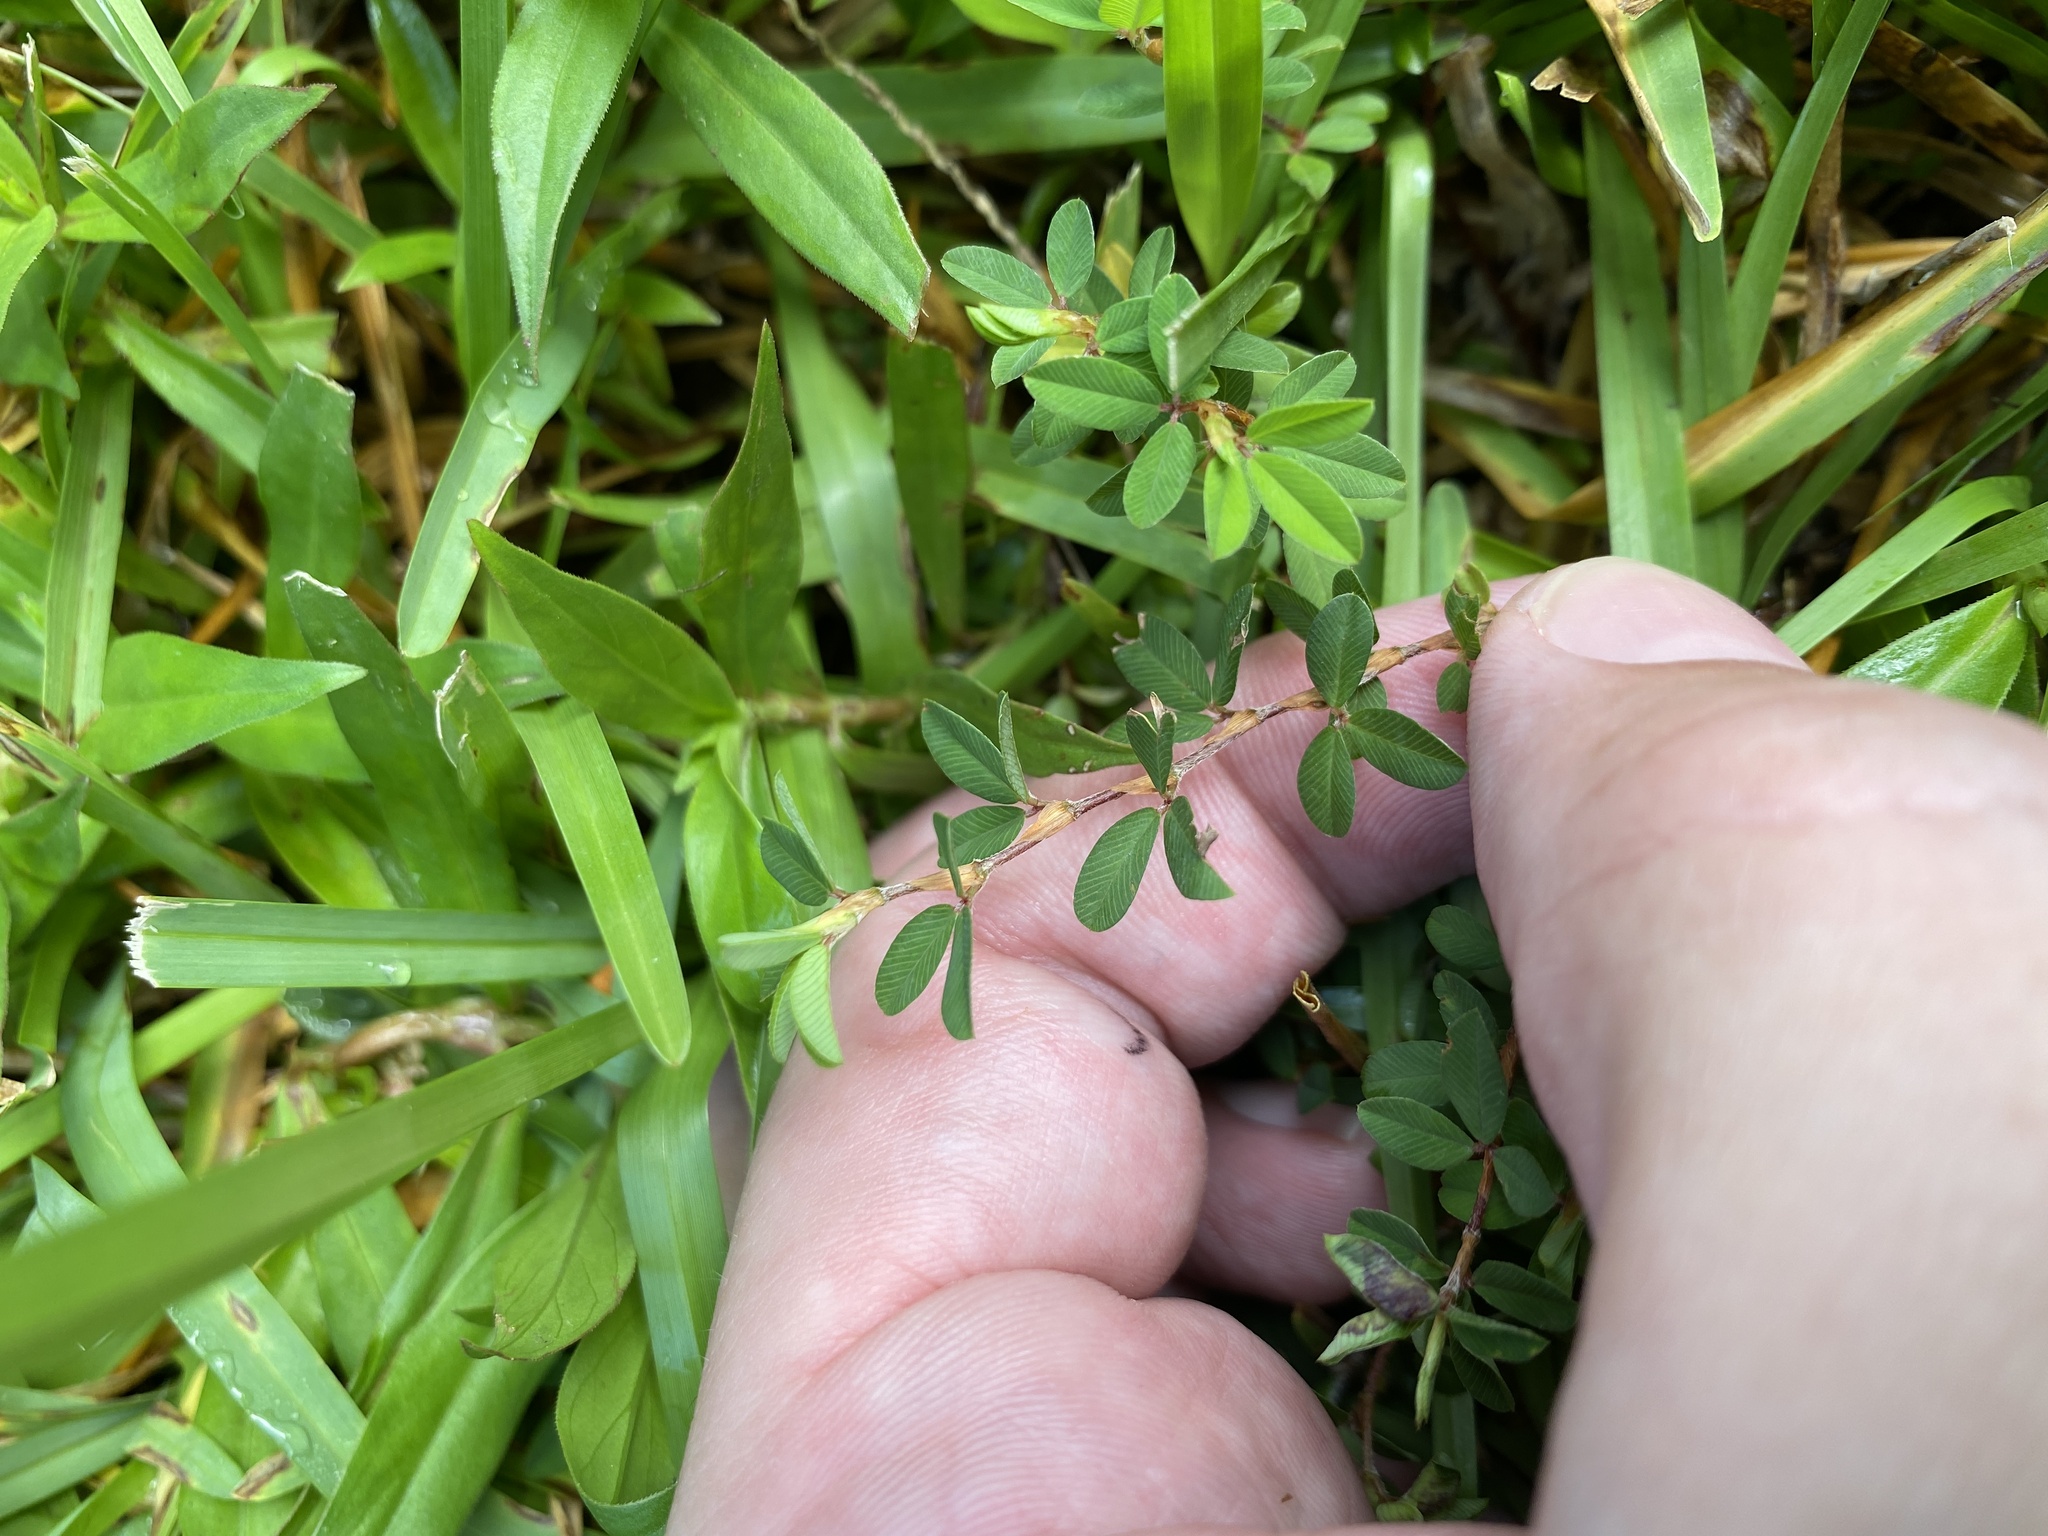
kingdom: Plantae
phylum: Tracheophyta
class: Magnoliopsida
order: Fabales
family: Fabaceae
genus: Kummerowia
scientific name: Kummerowia striata
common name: Japanese clover
